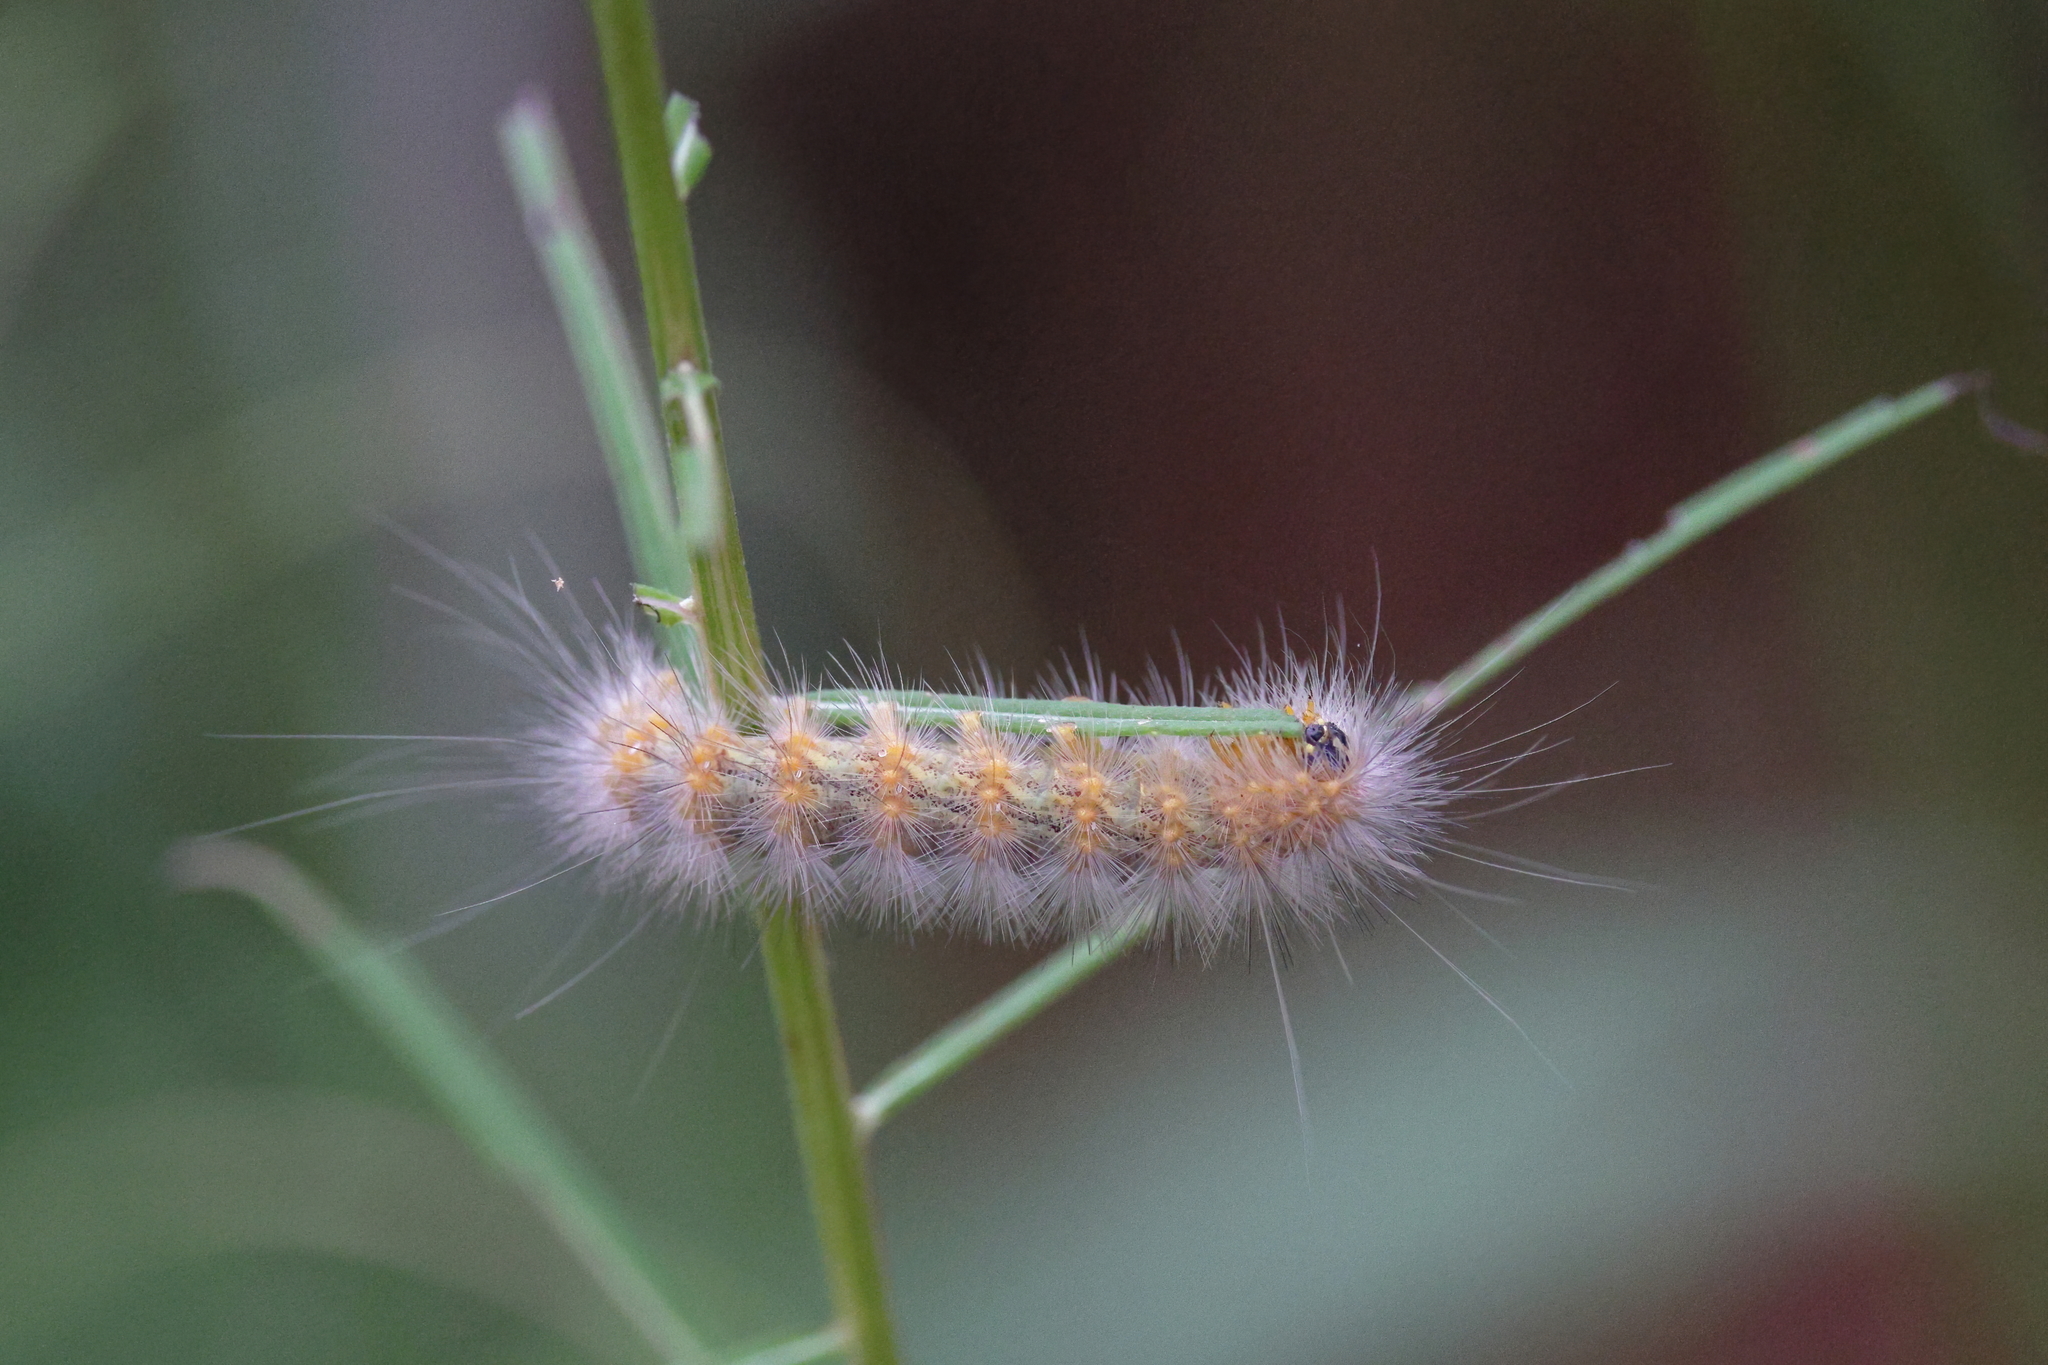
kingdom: Animalia
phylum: Arthropoda
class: Insecta
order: Lepidoptera
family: Erebidae
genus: Estigmene
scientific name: Estigmene acrea
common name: Salt marsh moth
